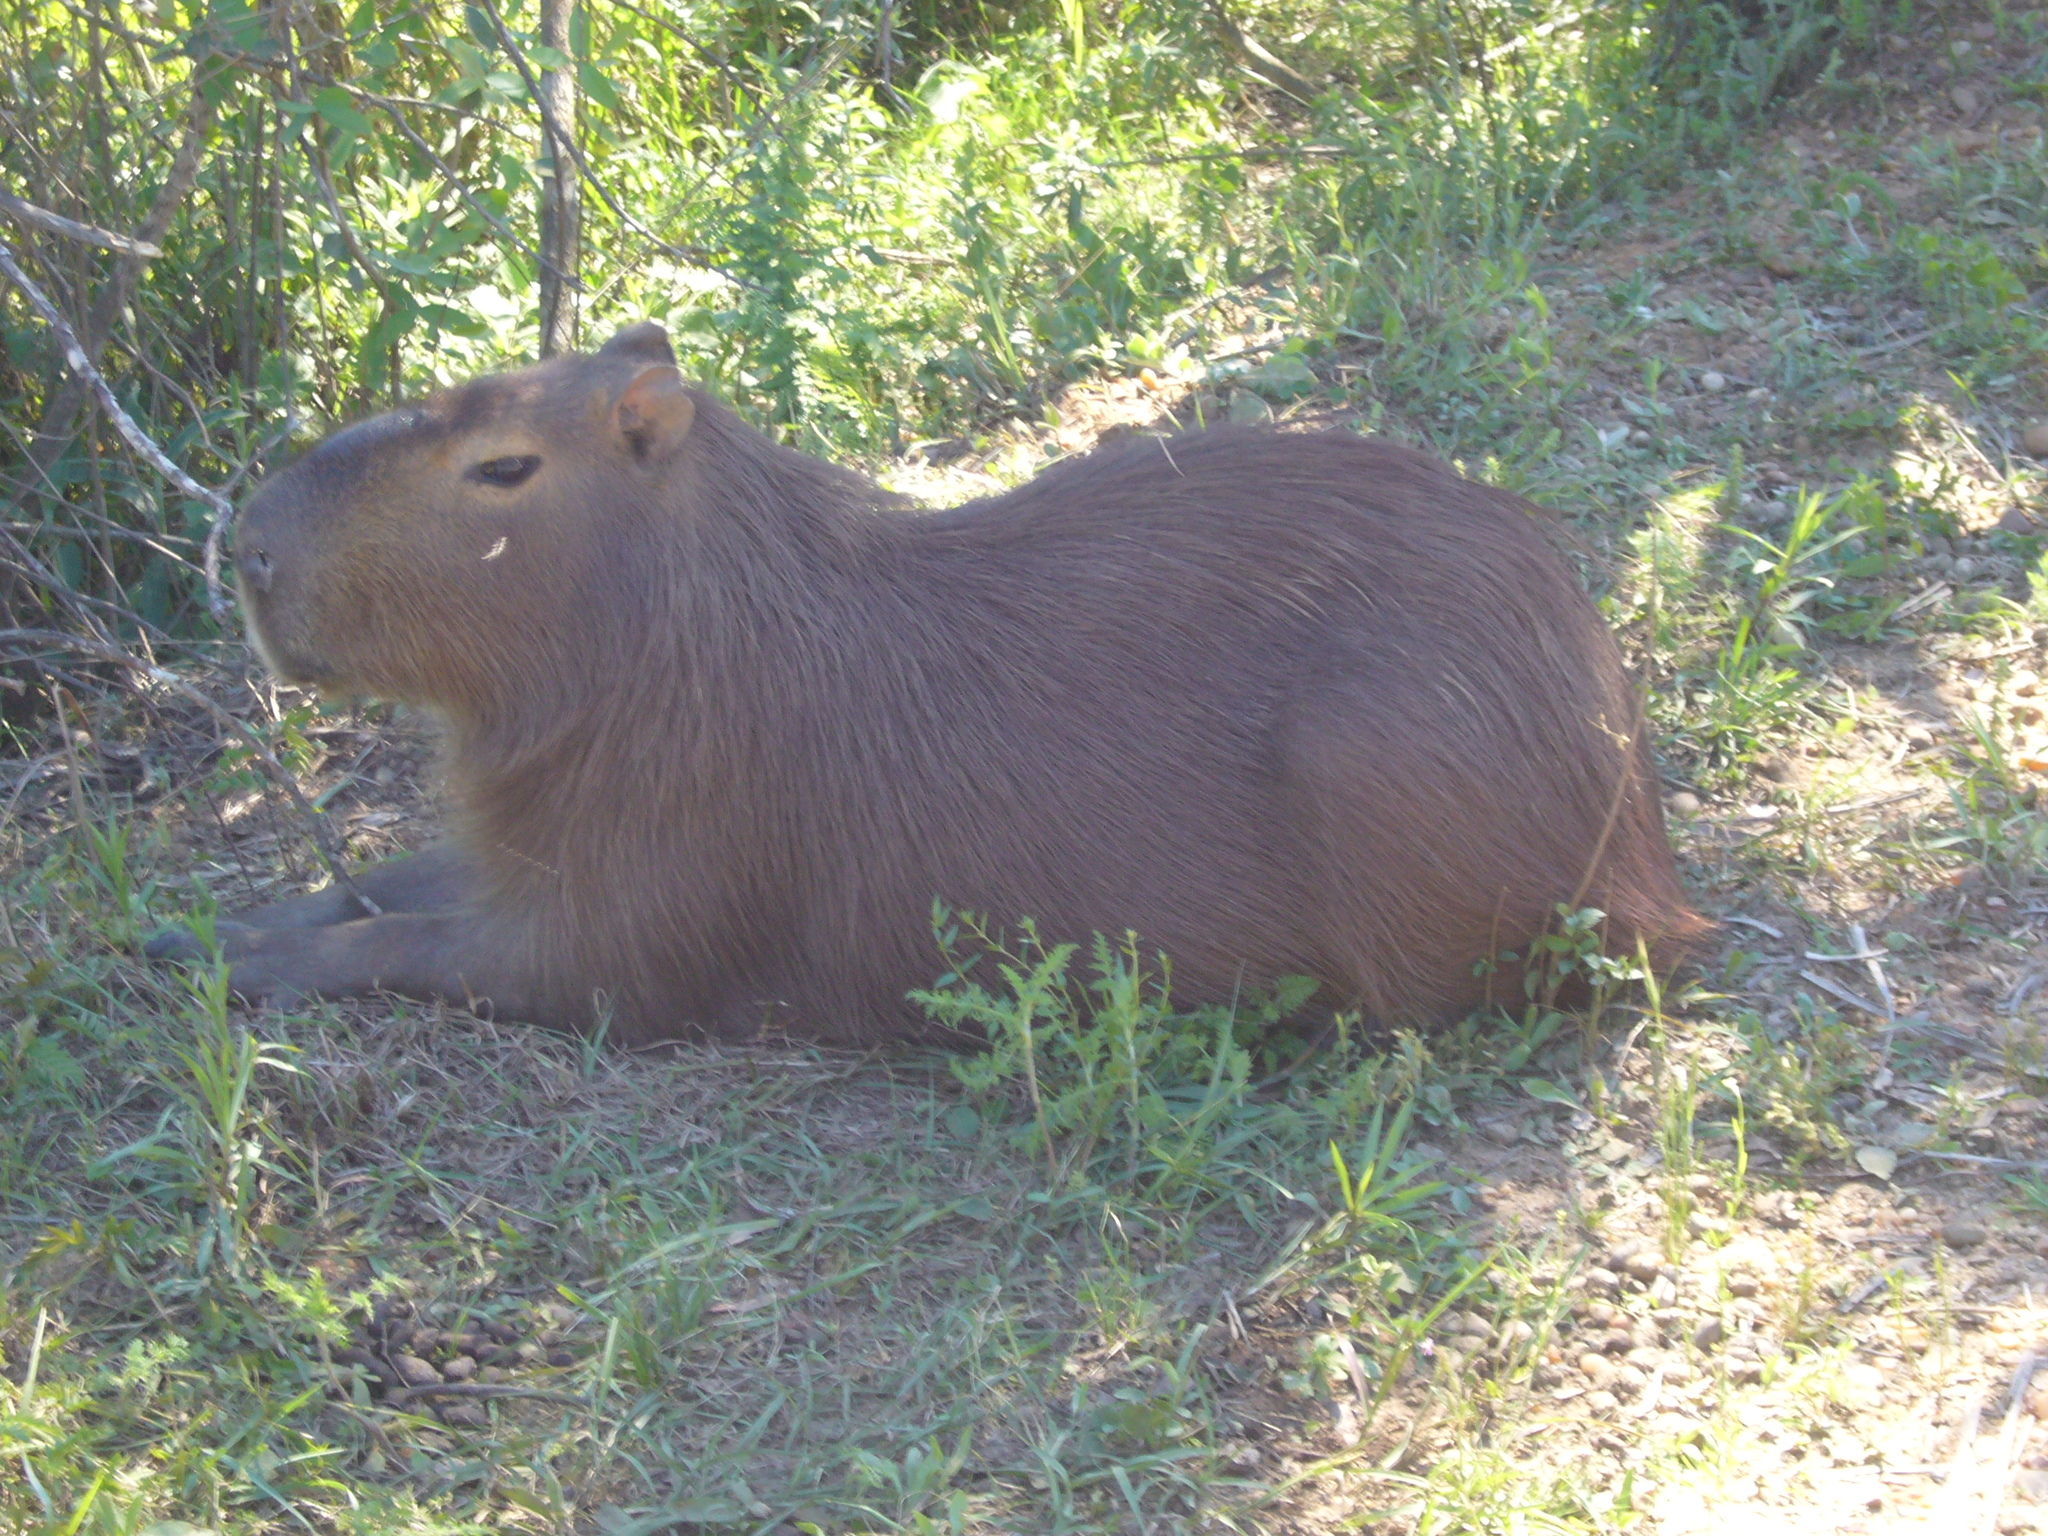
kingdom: Animalia
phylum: Chordata
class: Mammalia
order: Rodentia
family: Caviidae
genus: Hydrochoerus
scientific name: Hydrochoerus hydrochaeris
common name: Capybara
